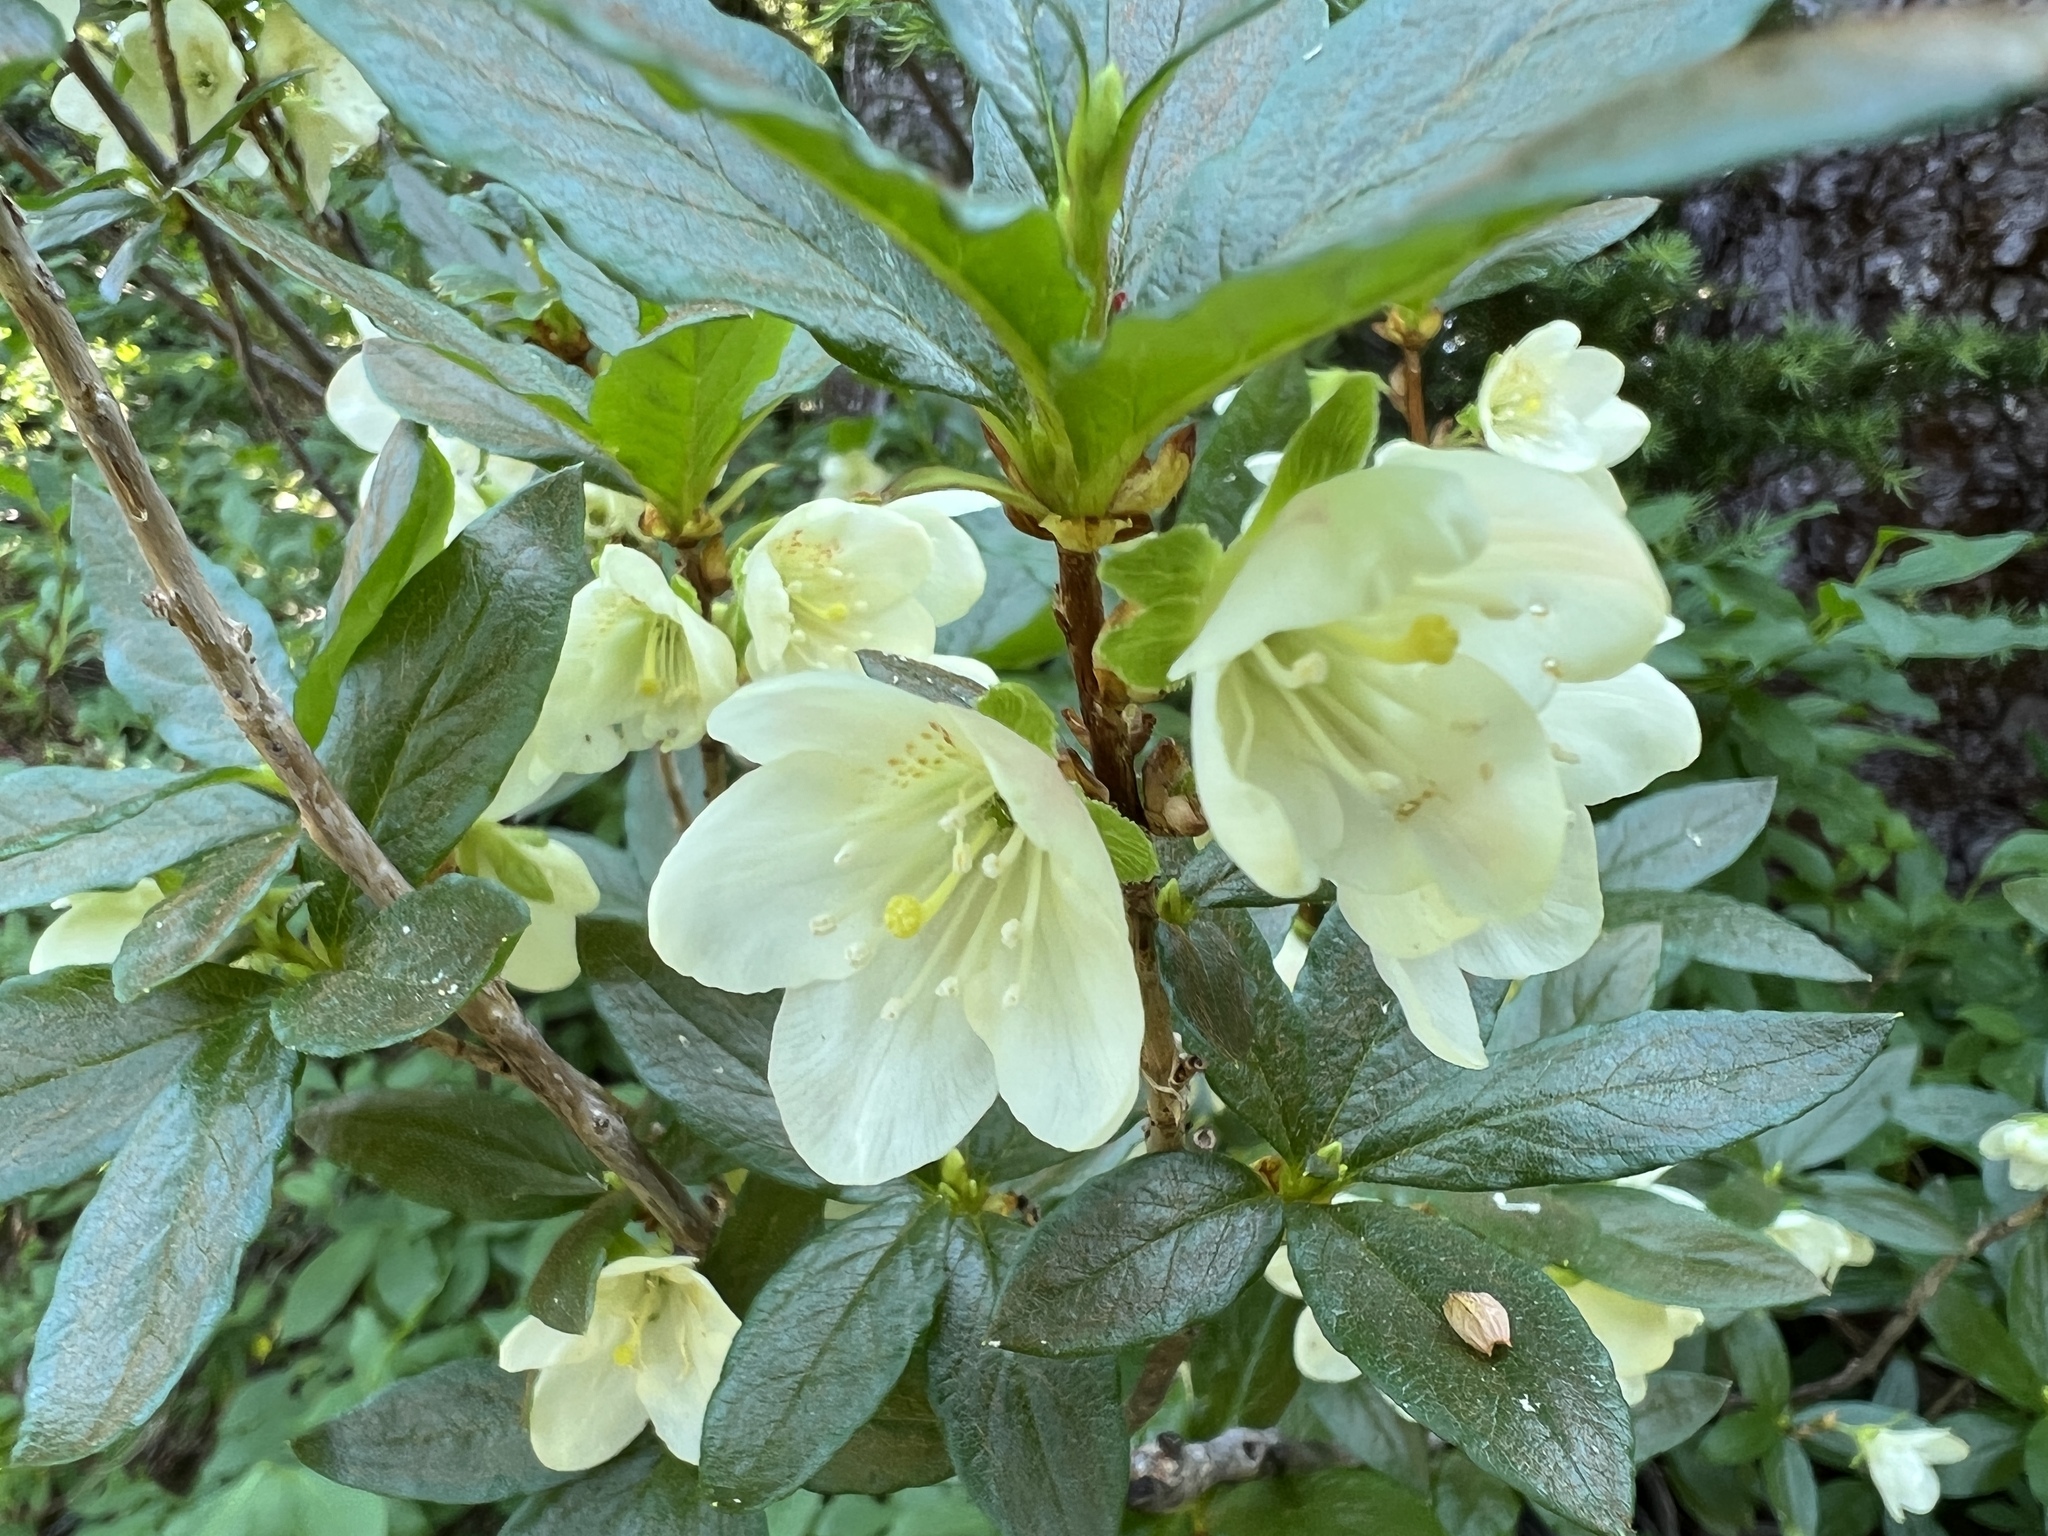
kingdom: Plantae
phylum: Tracheophyta
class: Magnoliopsida
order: Ericales
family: Ericaceae
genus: Rhododendron
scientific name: Rhododendron albiflorum
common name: White rhododendron
